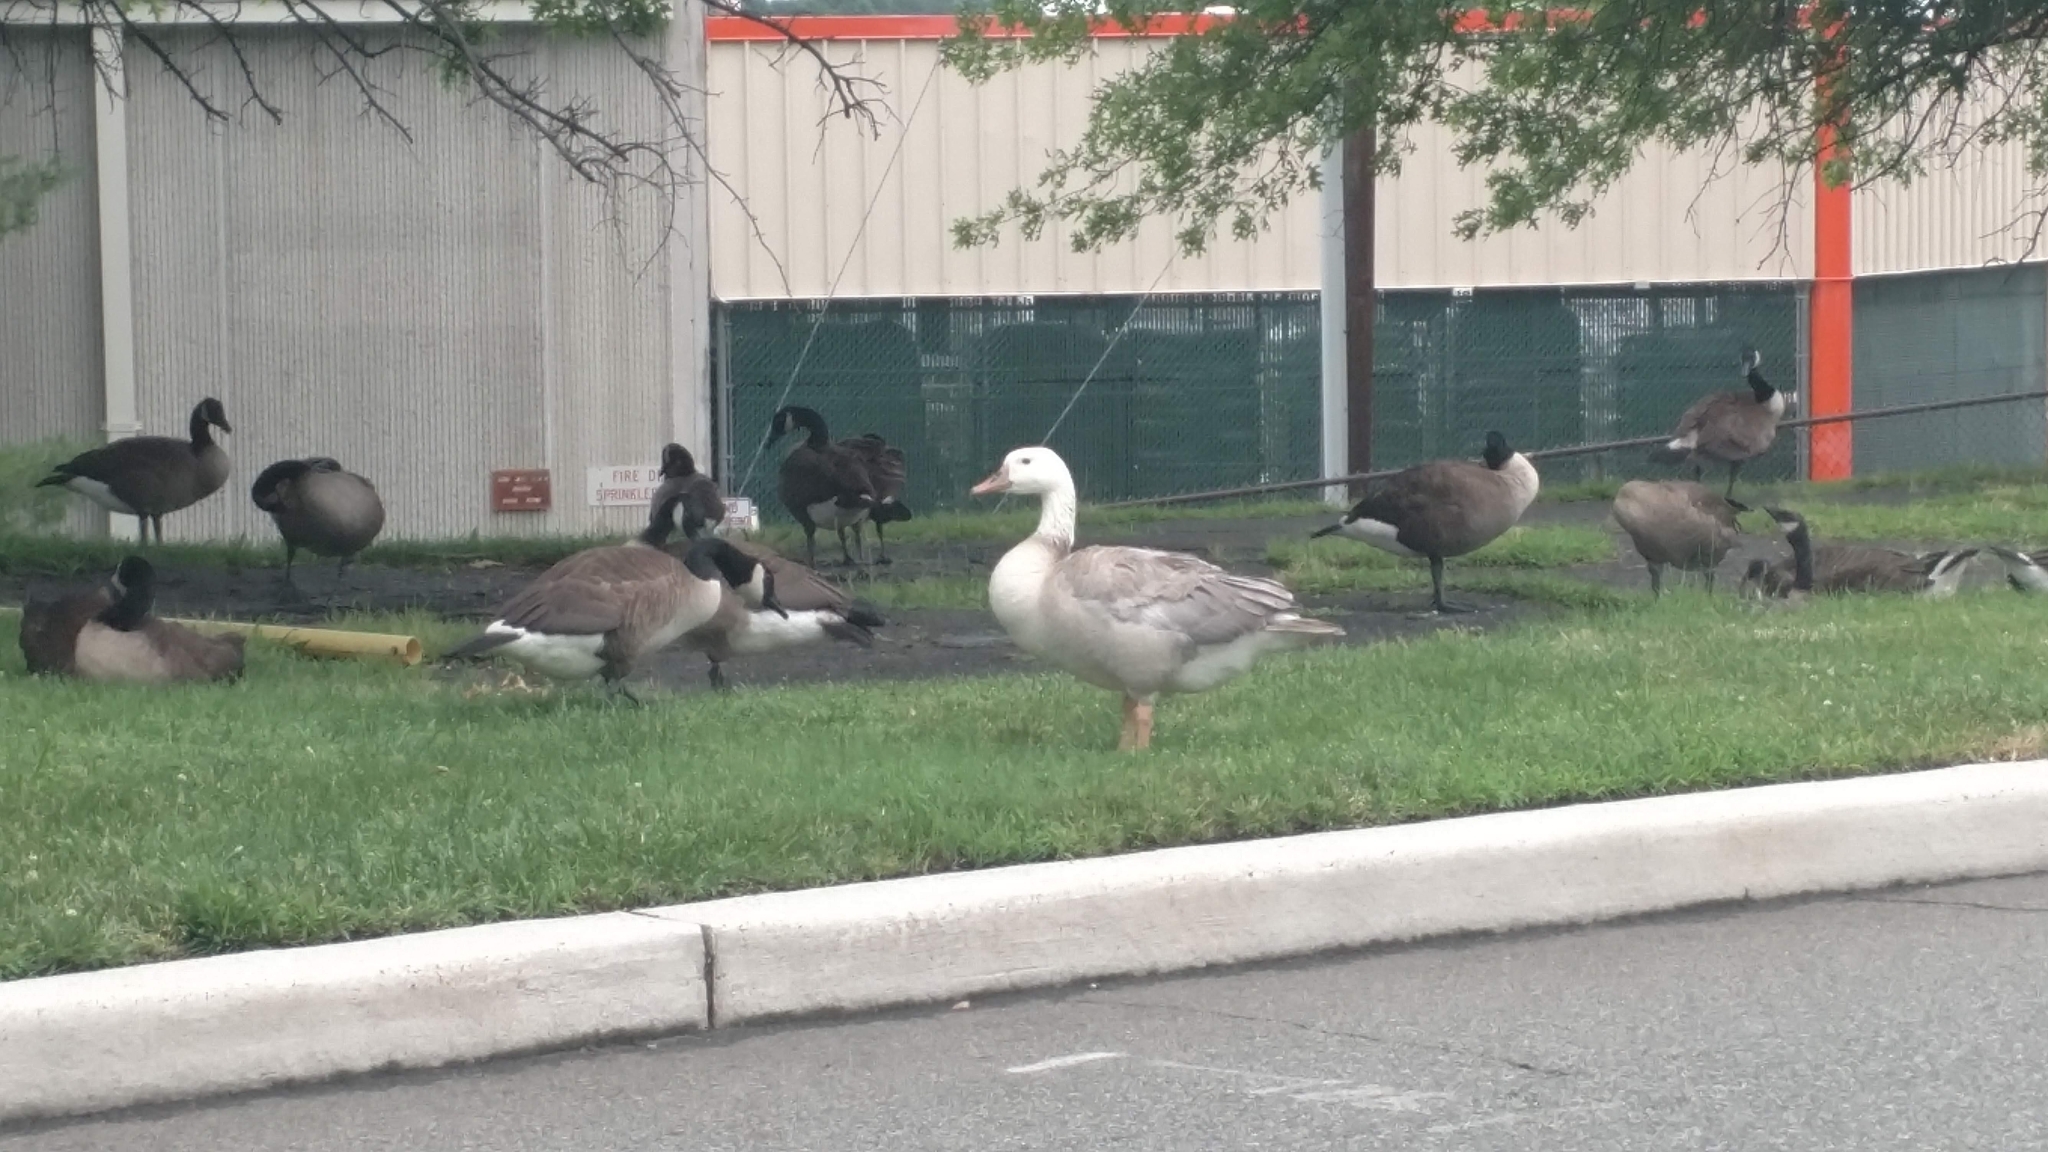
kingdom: Animalia
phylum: Chordata
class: Aves
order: Anseriformes
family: Anatidae
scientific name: Anatidae
